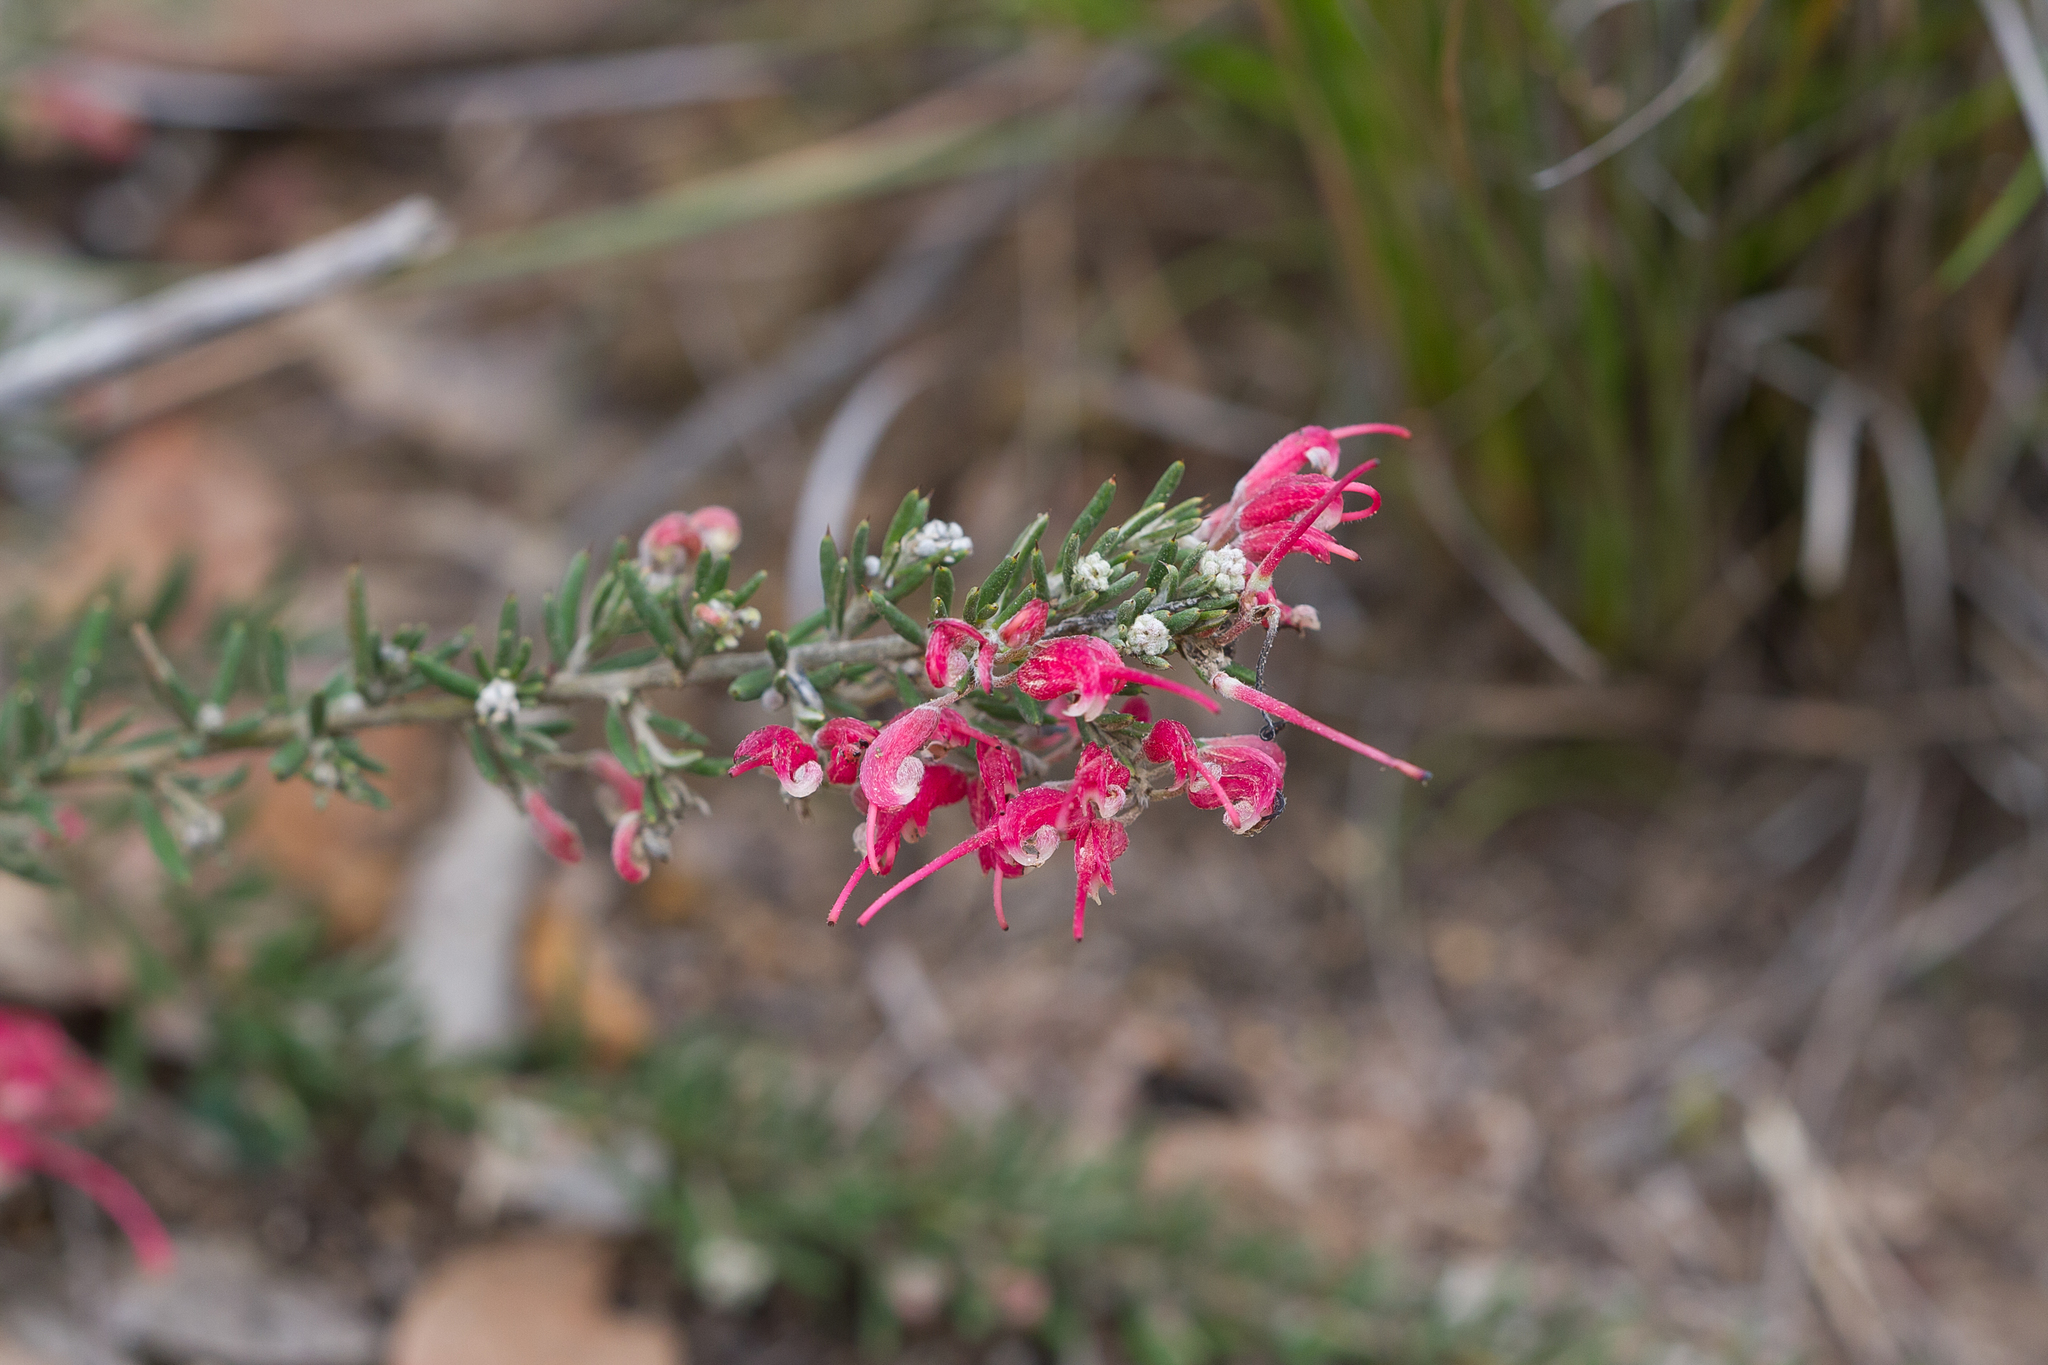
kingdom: Plantae
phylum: Tracheophyta
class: Magnoliopsida
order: Proteales
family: Proteaceae
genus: Grevillea
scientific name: Grevillea lavandulacea
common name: Lavender grevillea
